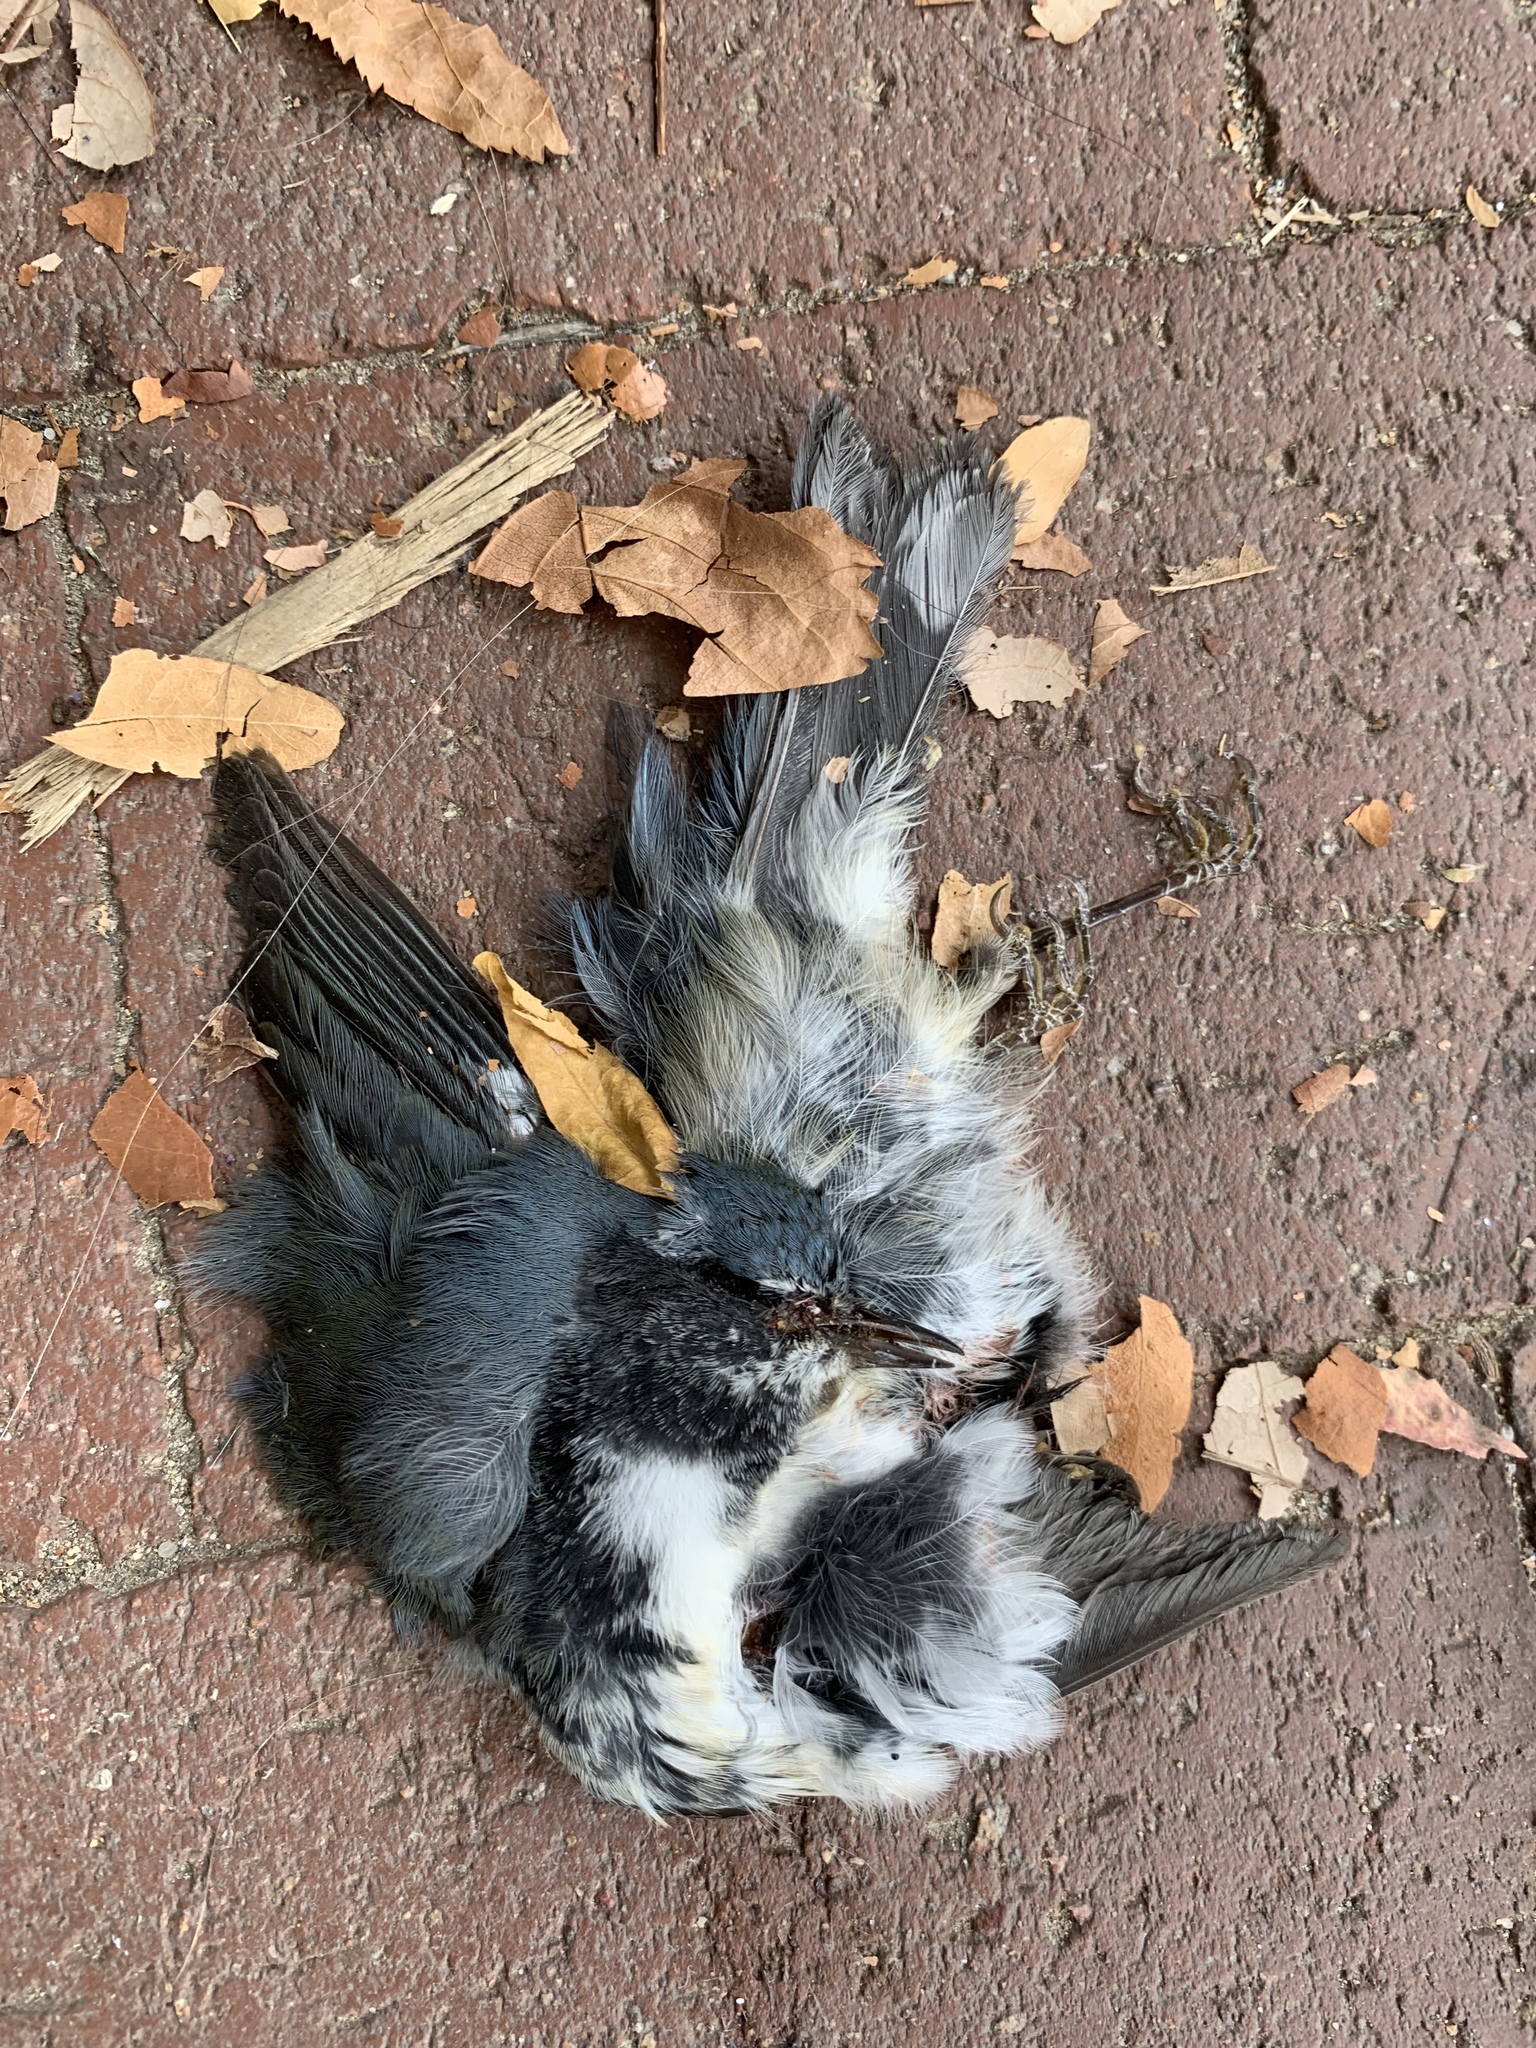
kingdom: Animalia
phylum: Chordata
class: Aves
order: Passeriformes
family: Parulidae
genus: Setophaga
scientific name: Setophaga caerulescens
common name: Black-throated blue warbler
